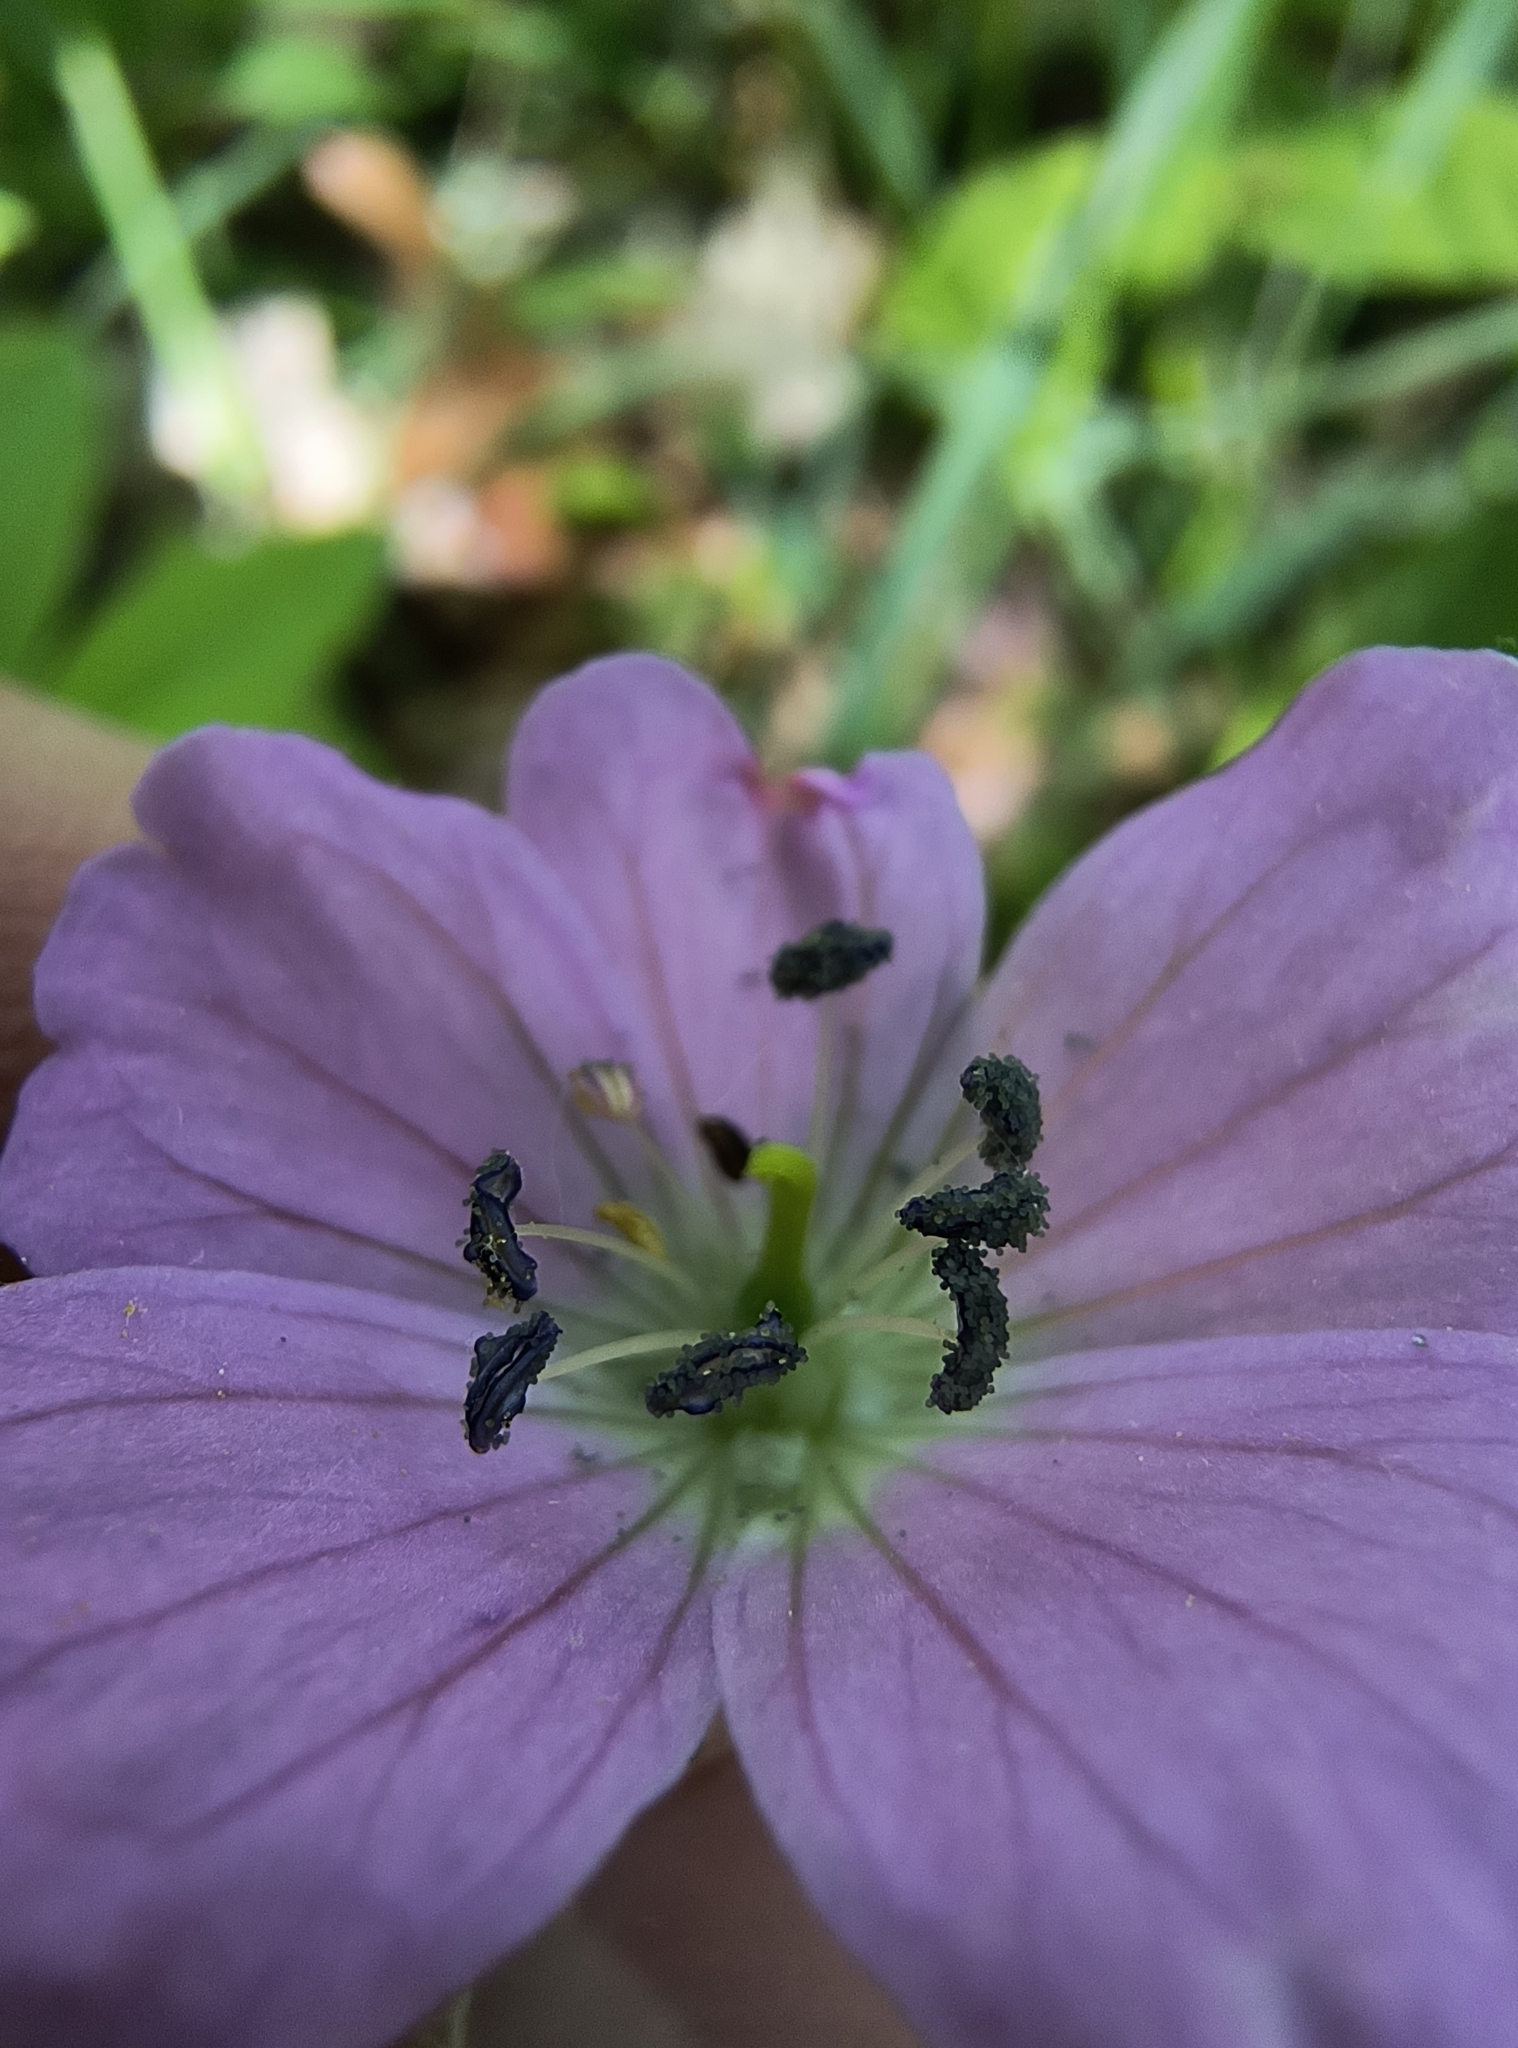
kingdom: Plantae
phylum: Tracheophyta
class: Magnoliopsida
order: Geraniales
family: Geraniaceae
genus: Geranium
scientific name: Geranium maculatum
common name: Spotted geranium
